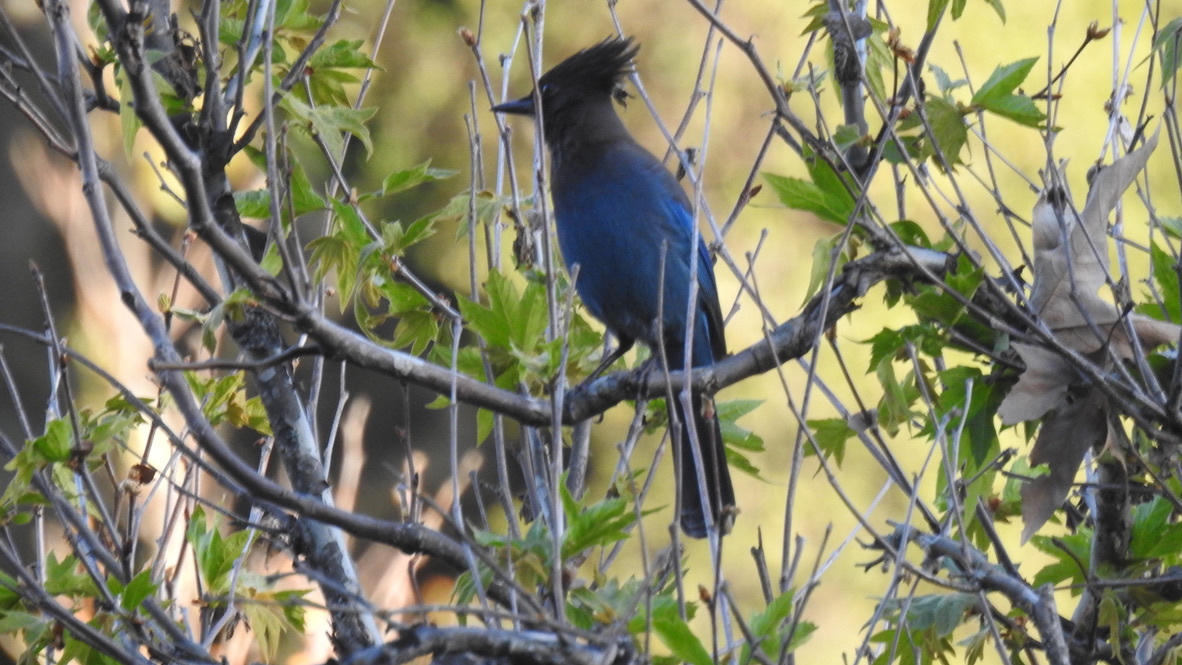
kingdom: Animalia
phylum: Chordata
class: Aves
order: Passeriformes
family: Corvidae
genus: Cyanocitta
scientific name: Cyanocitta stelleri
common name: Steller's jay
